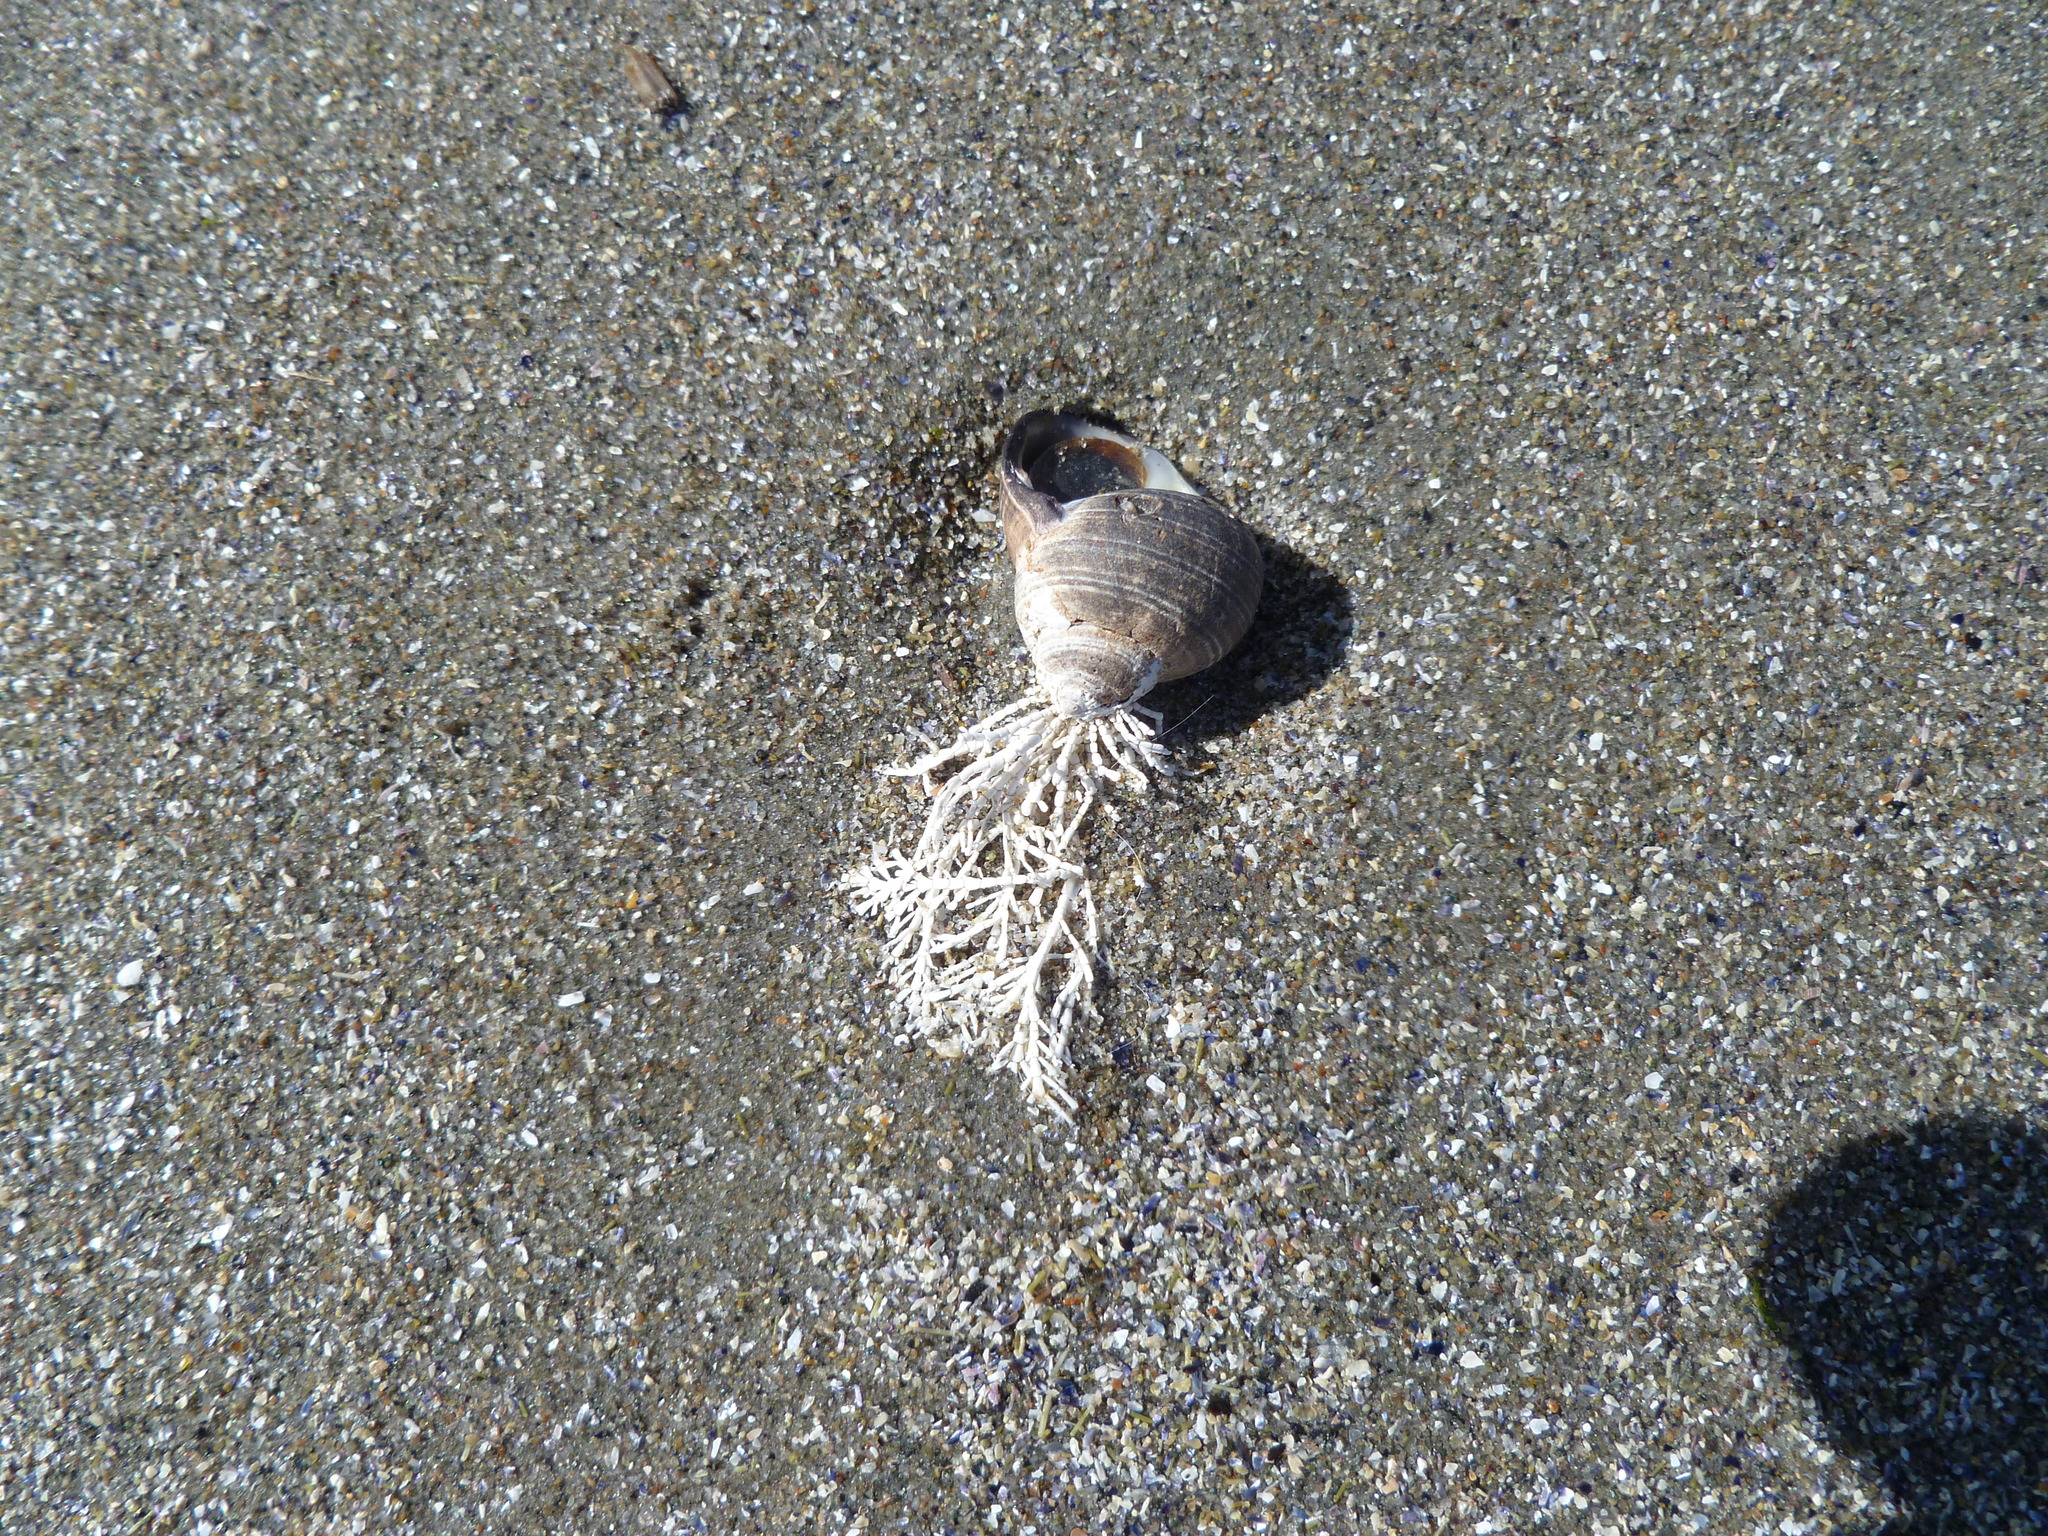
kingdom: Plantae
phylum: Rhodophyta
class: Florideophyceae
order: Corallinales
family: Corallinaceae
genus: Corallina
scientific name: Corallina officinalis
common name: Coral weed
